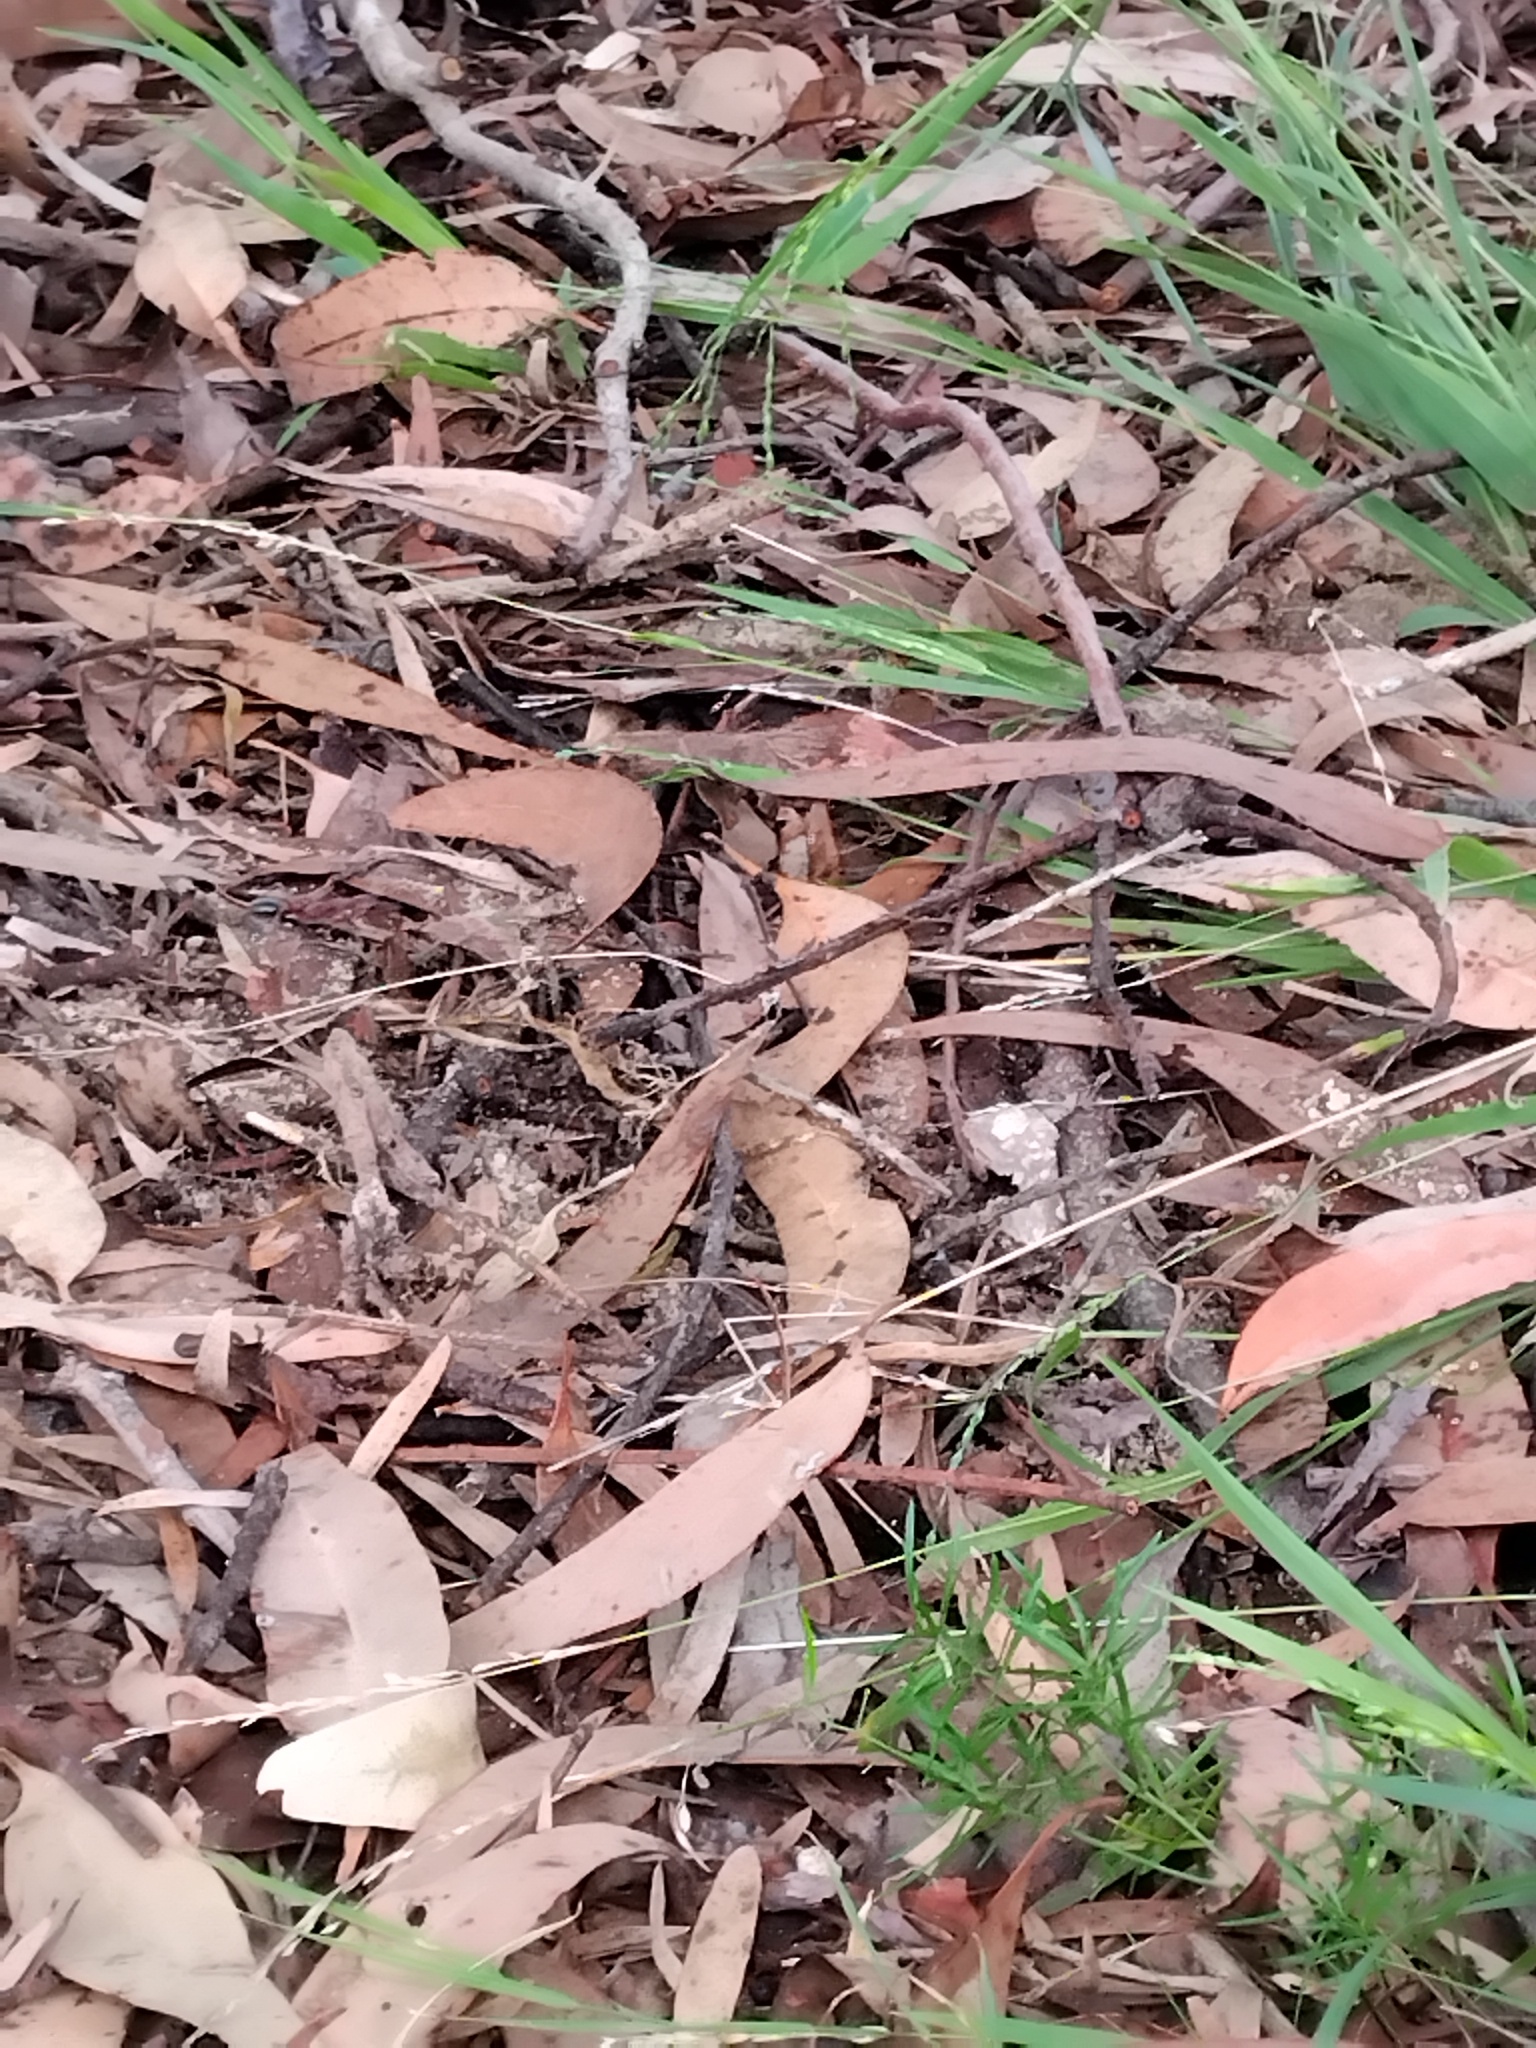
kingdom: Animalia
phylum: Arthropoda
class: Insecta
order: Hymenoptera
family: Formicidae
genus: Myrmecia
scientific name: Myrmecia brevinoda
